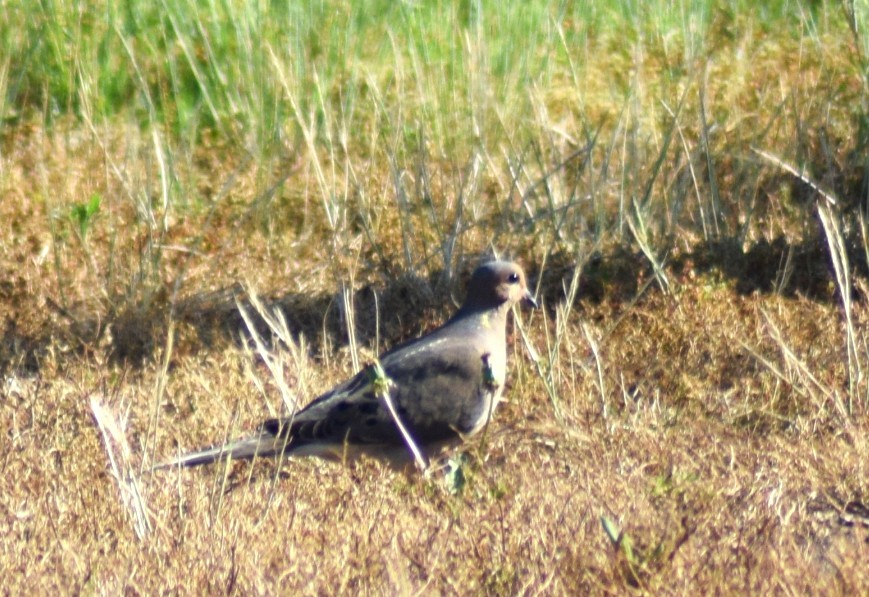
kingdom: Animalia
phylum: Chordata
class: Aves
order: Columbiformes
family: Columbidae
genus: Zenaida
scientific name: Zenaida macroura
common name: Mourning dove
